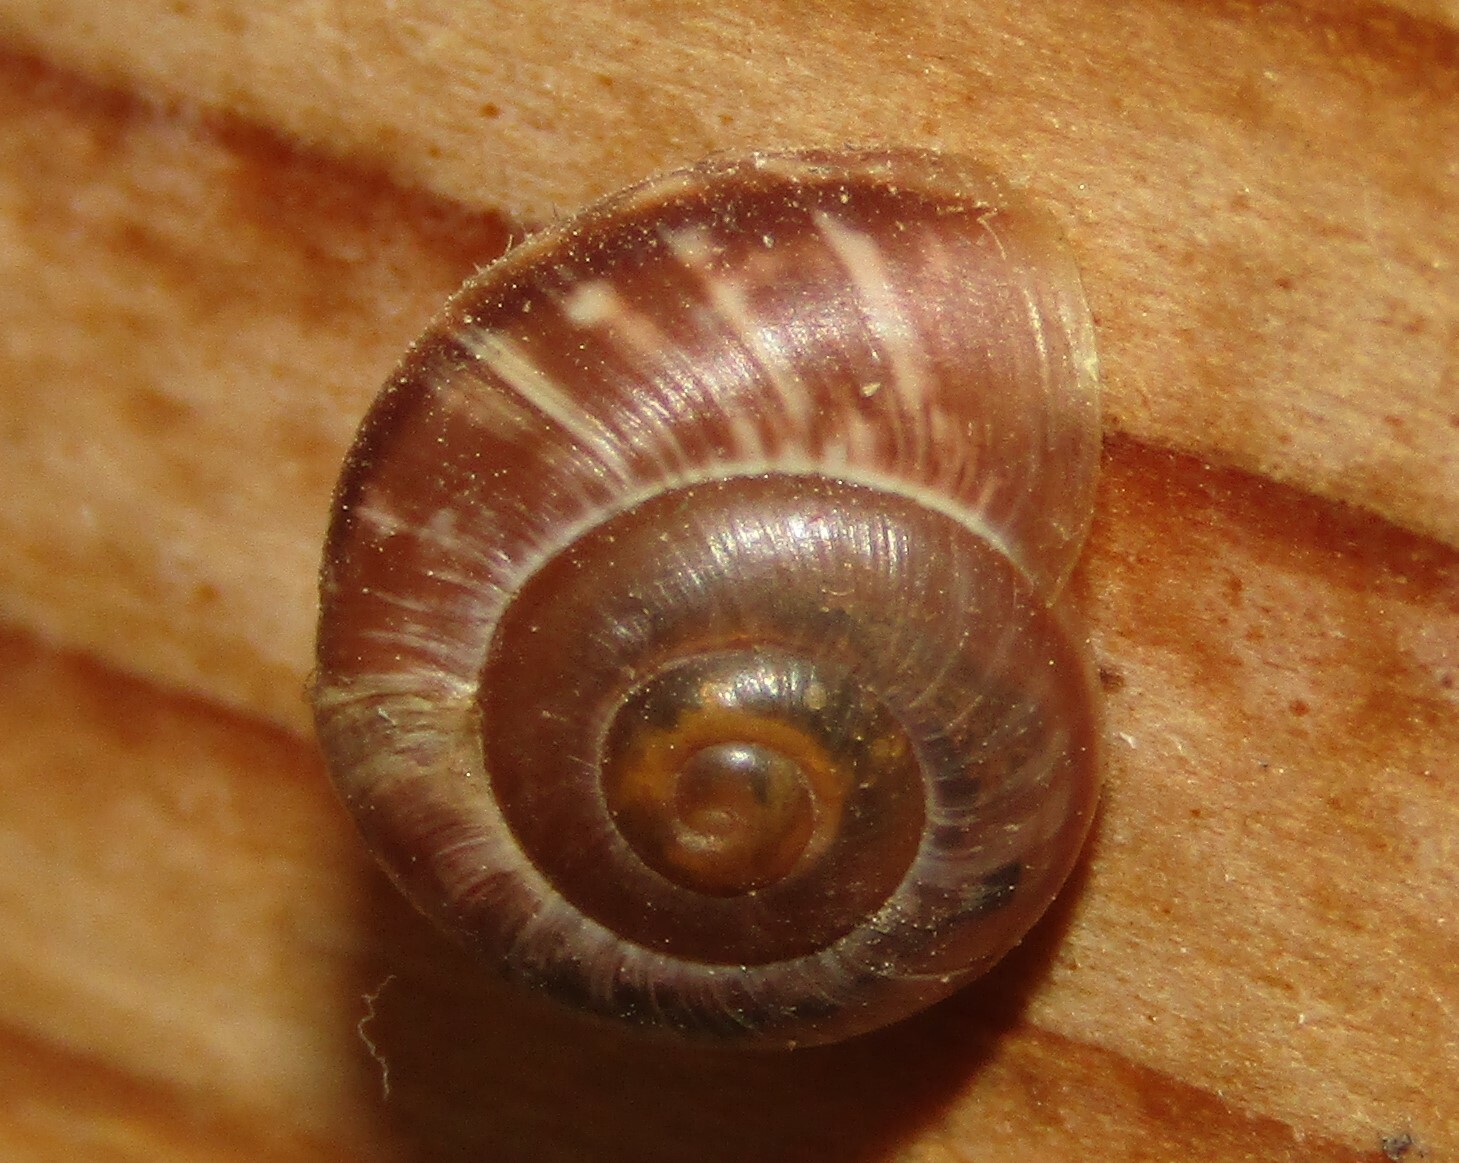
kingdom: Animalia
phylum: Mollusca
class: Gastropoda
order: Stylommatophora
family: Helicidae
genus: Arianta
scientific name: Arianta arbustorum
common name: Copse snail
